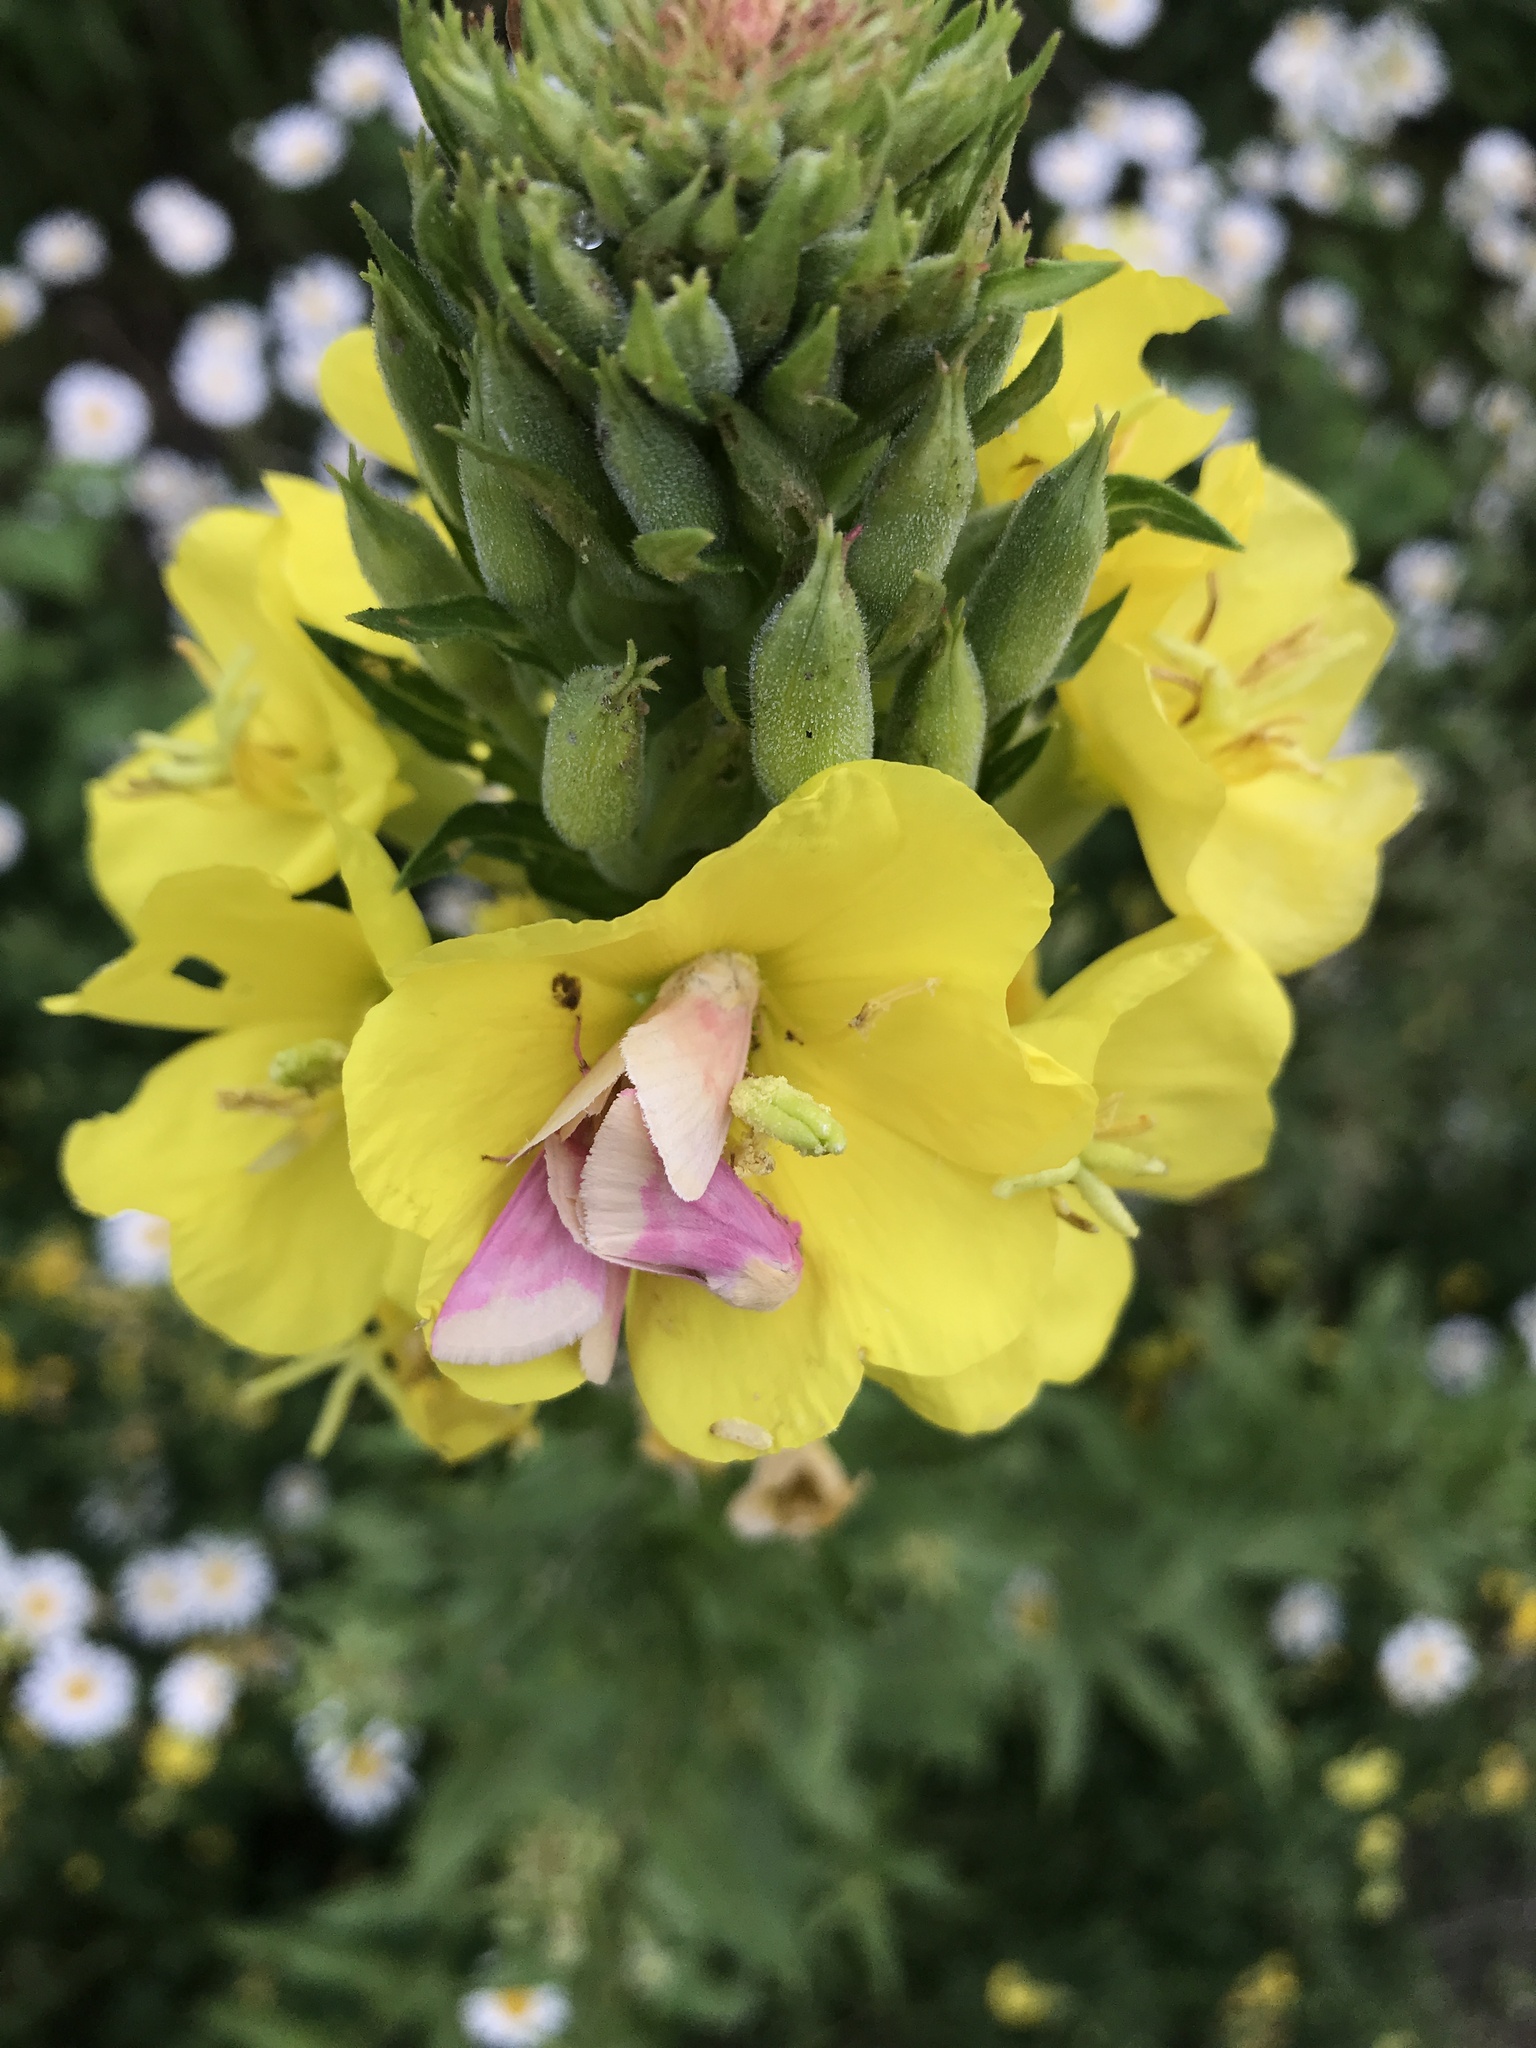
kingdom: Animalia
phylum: Arthropoda
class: Insecta
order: Lepidoptera
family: Noctuidae
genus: Schinia
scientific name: Schinia florida
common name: Primrose moth
